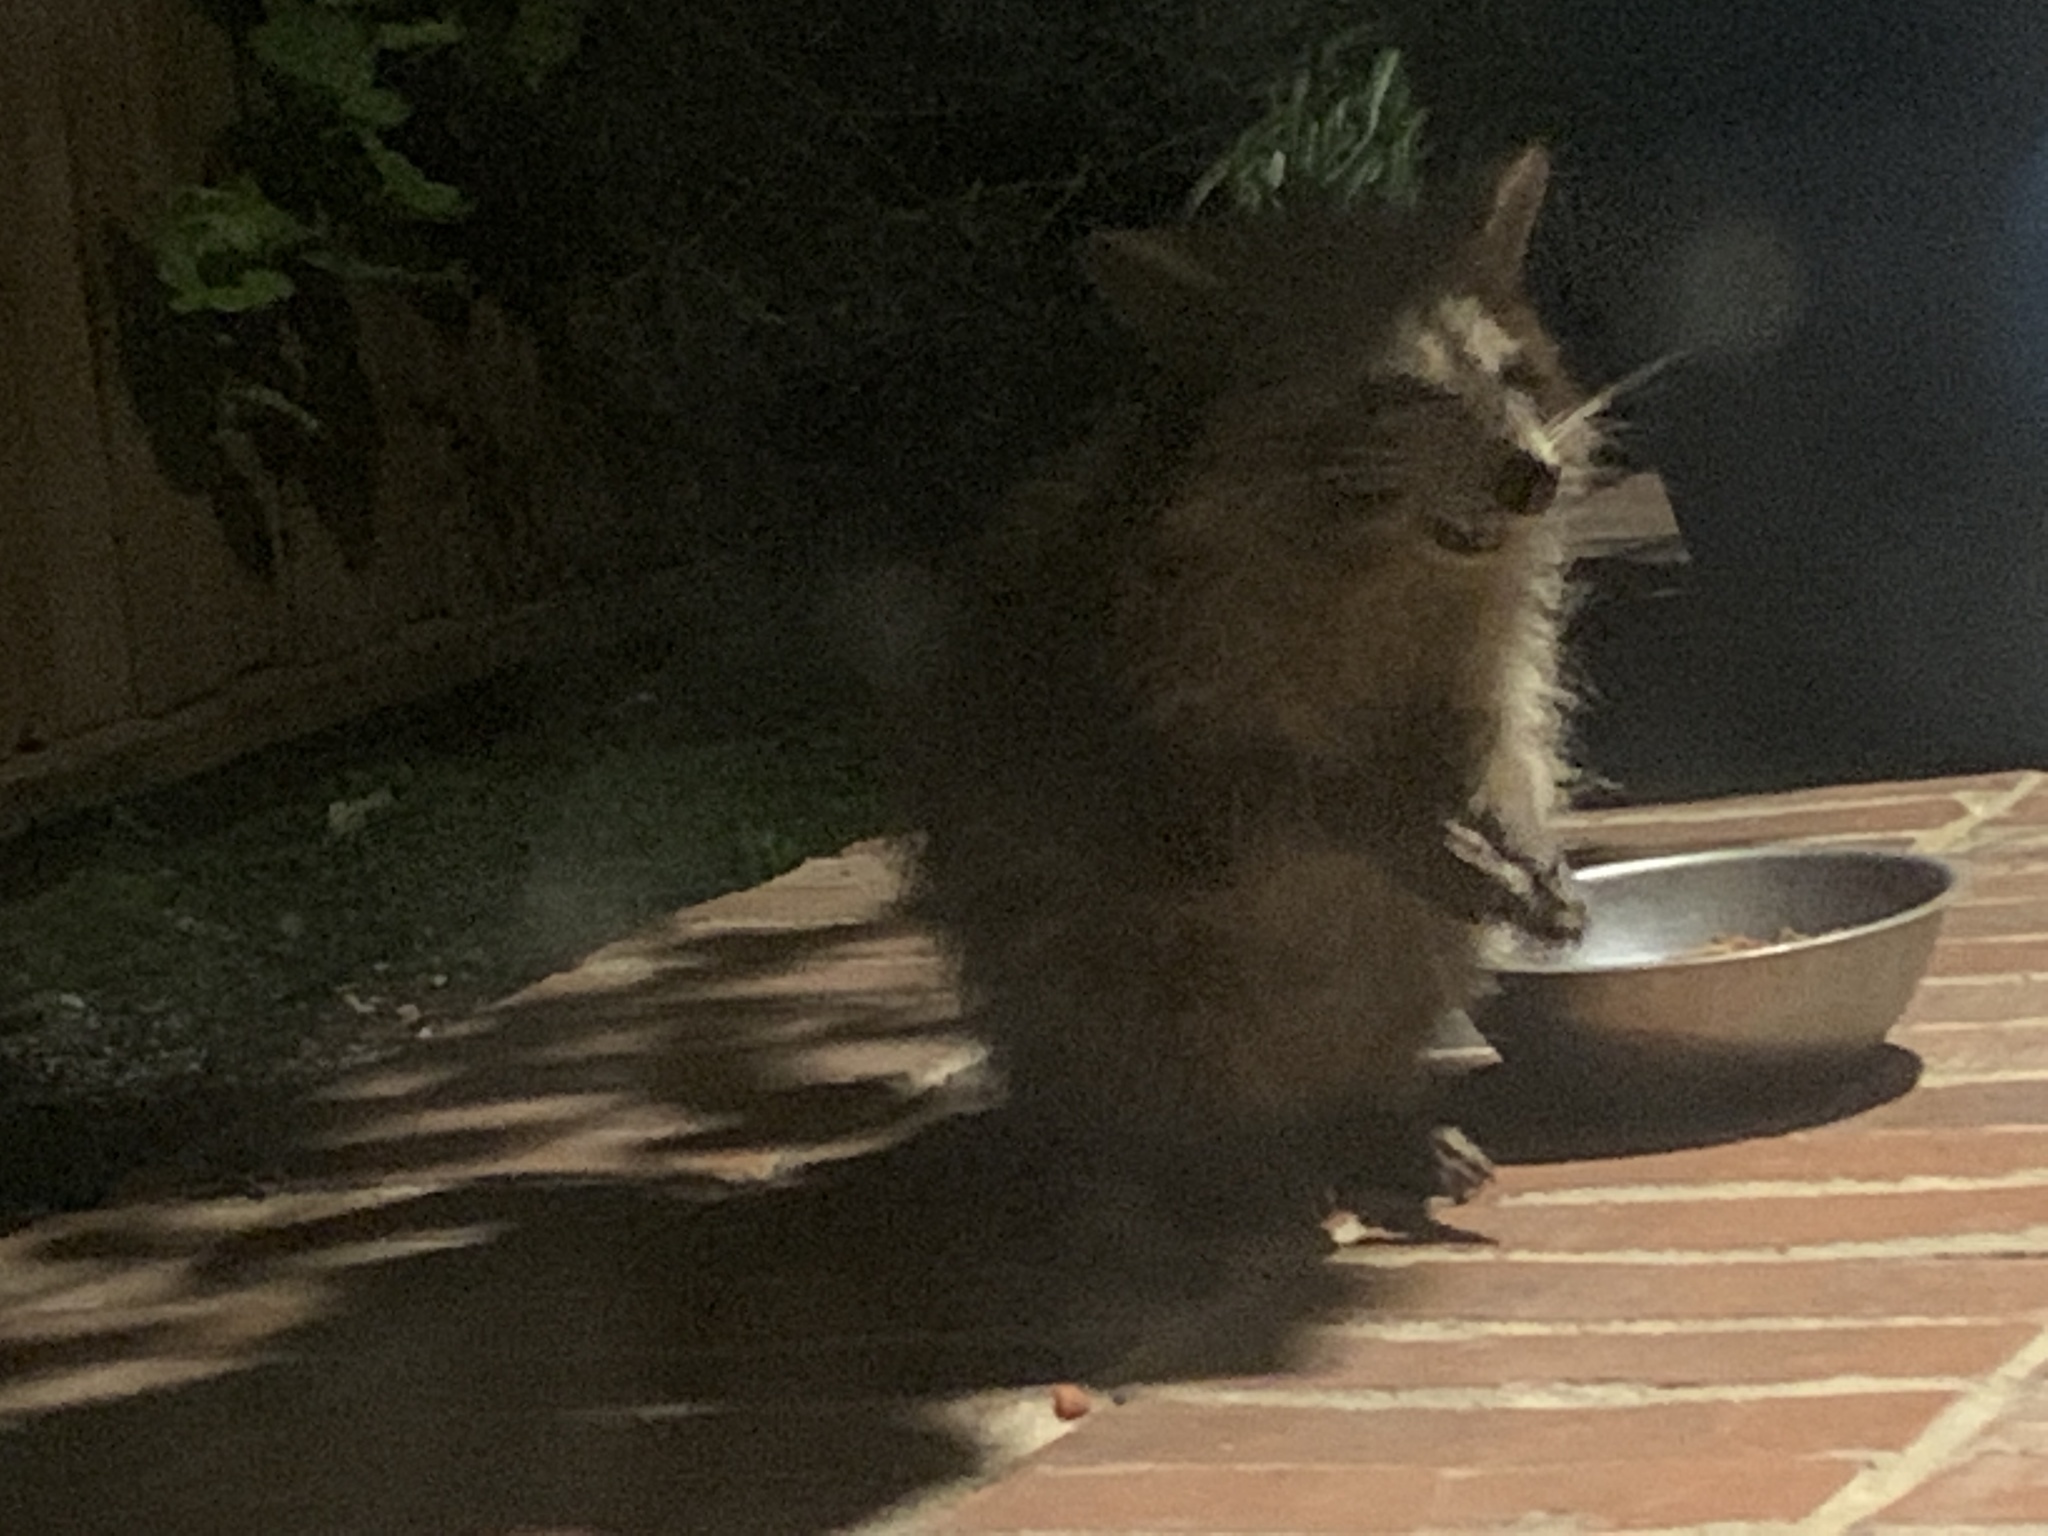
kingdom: Animalia
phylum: Chordata
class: Mammalia
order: Carnivora
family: Procyonidae
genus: Procyon
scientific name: Procyon lotor
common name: Raccoon
